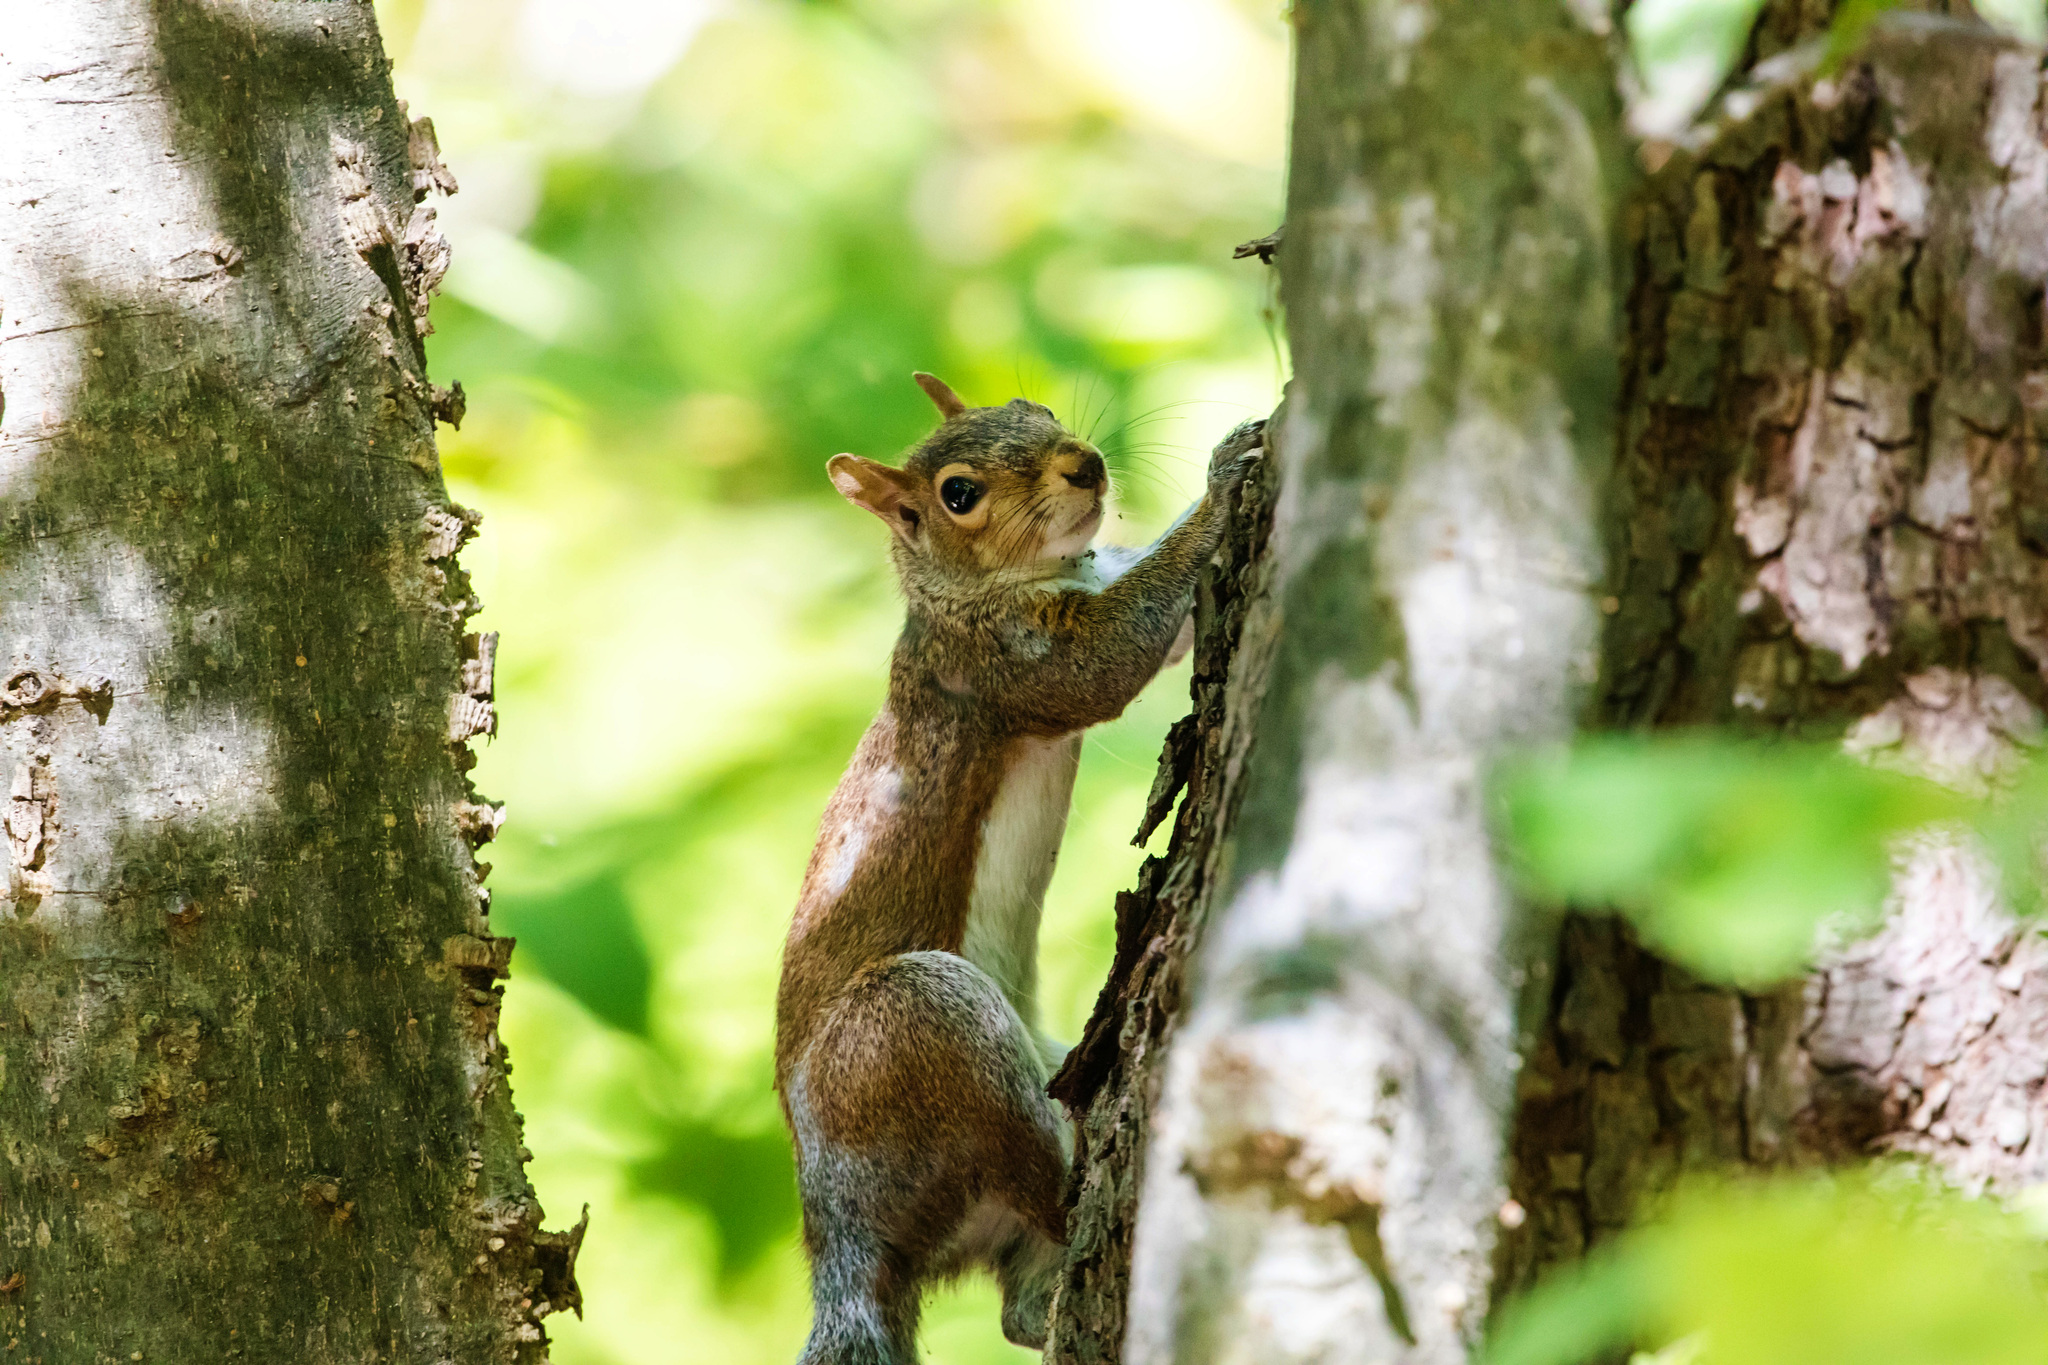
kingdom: Animalia
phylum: Chordata
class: Mammalia
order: Rodentia
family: Sciuridae
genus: Sciurus
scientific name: Sciurus carolinensis
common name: Eastern gray squirrel
